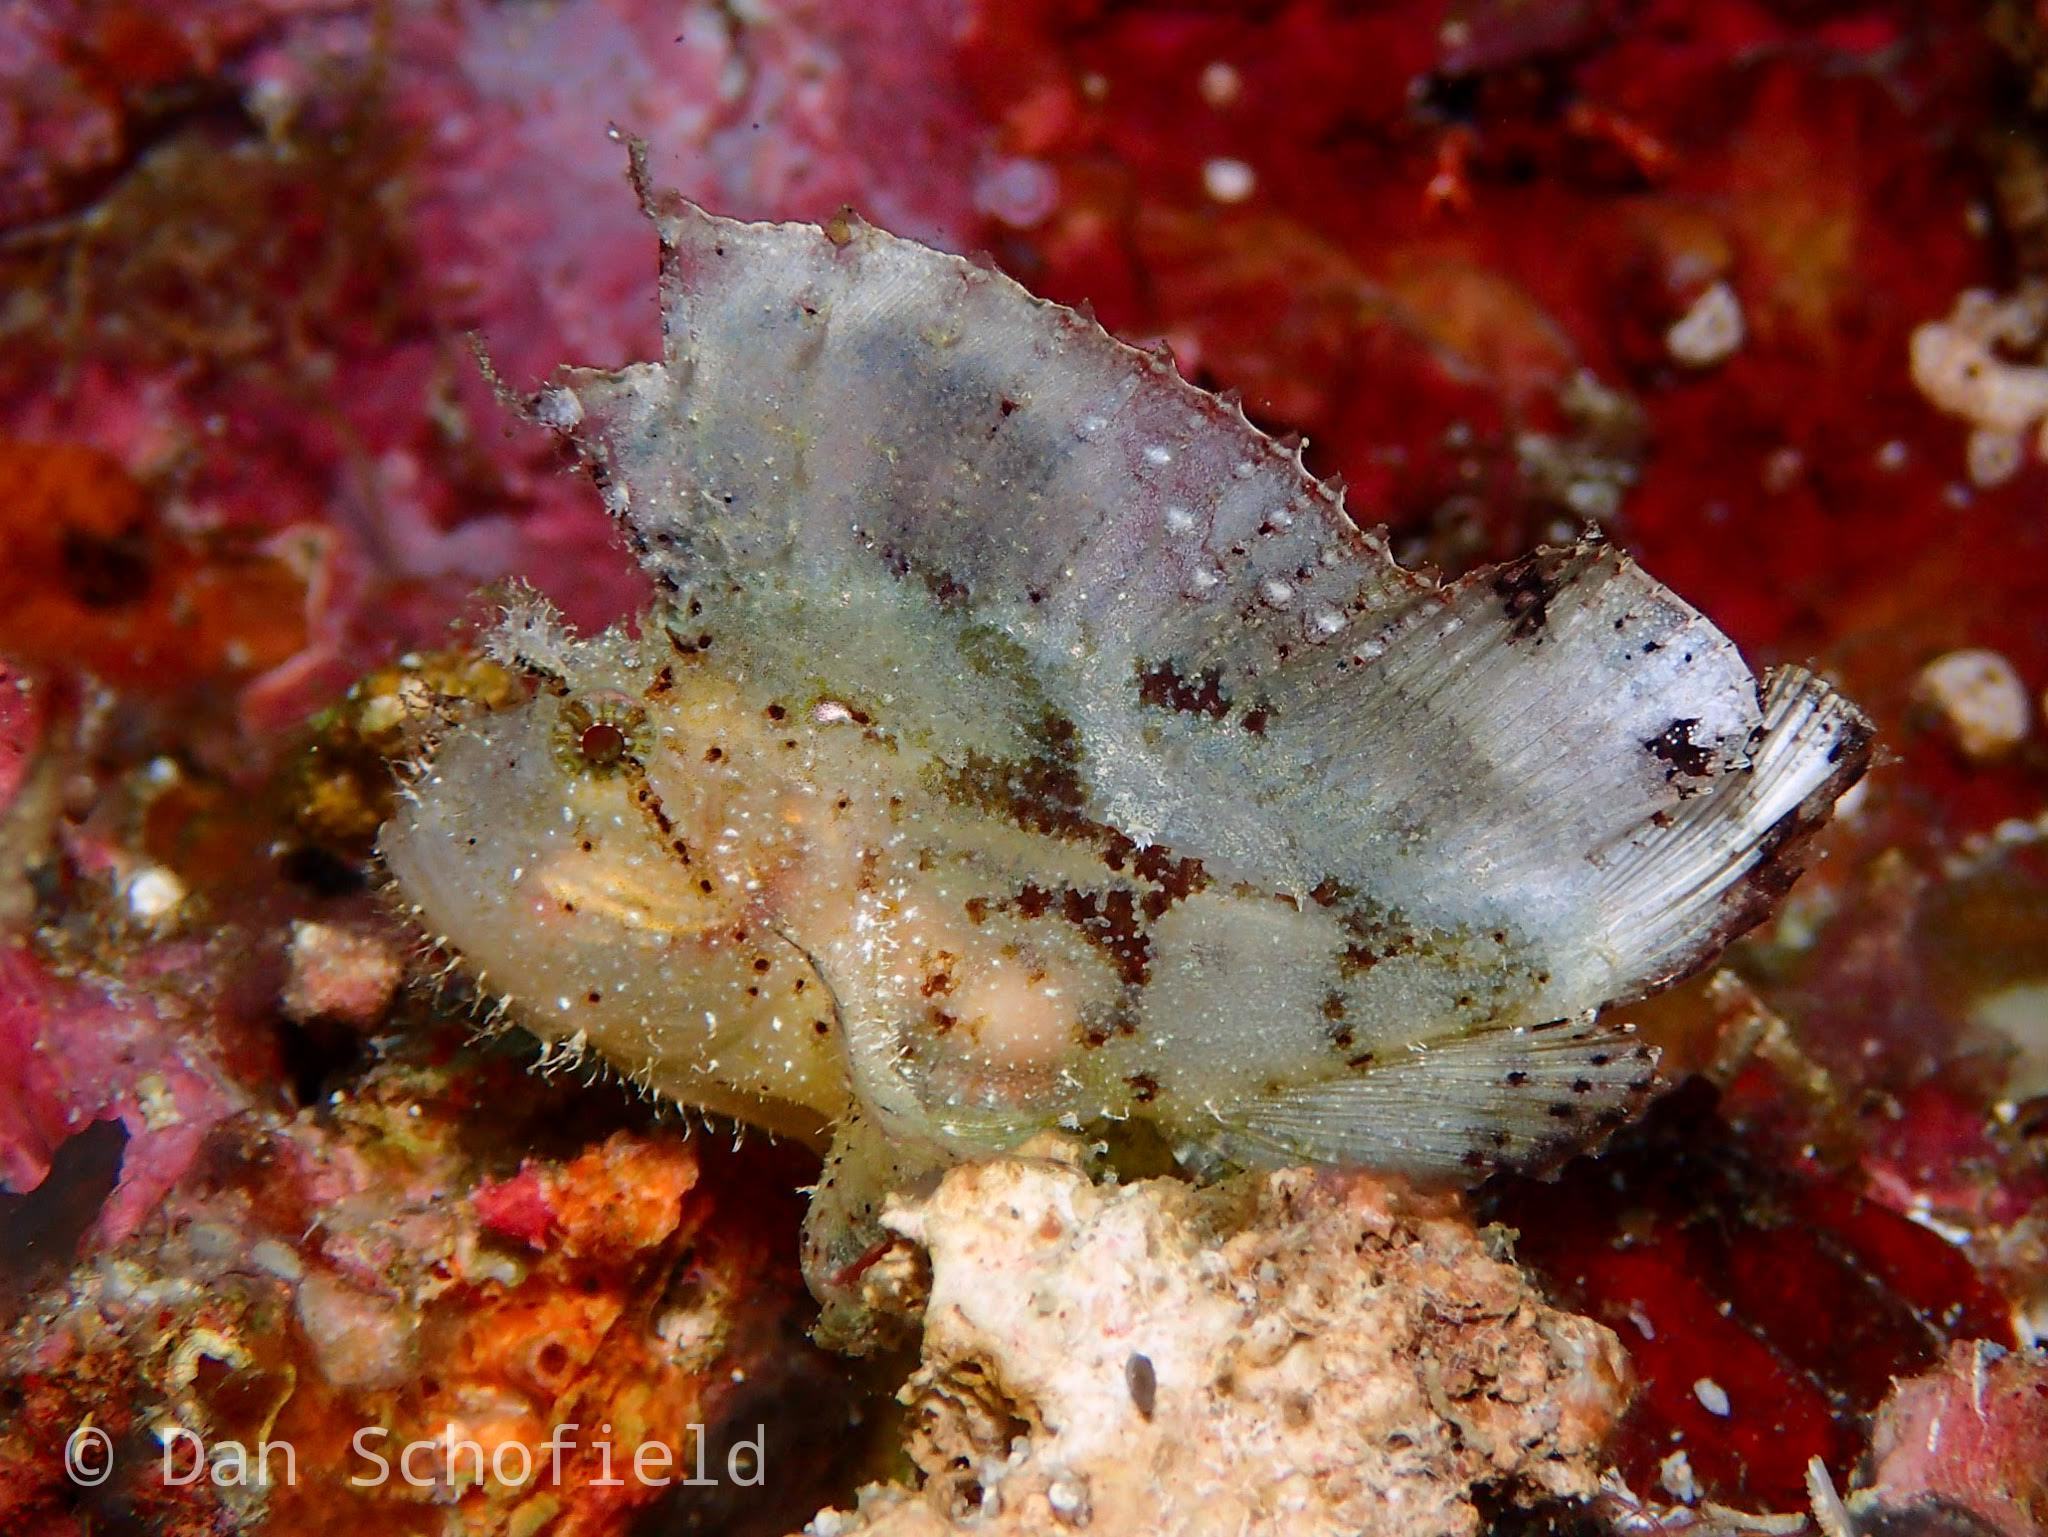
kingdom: Animalia
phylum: Chordata
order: Scorpaeniformes
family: Scorpaenidae
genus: Taenianotus
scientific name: Taenianotus triacanthus
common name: Leaf scorpionfish
